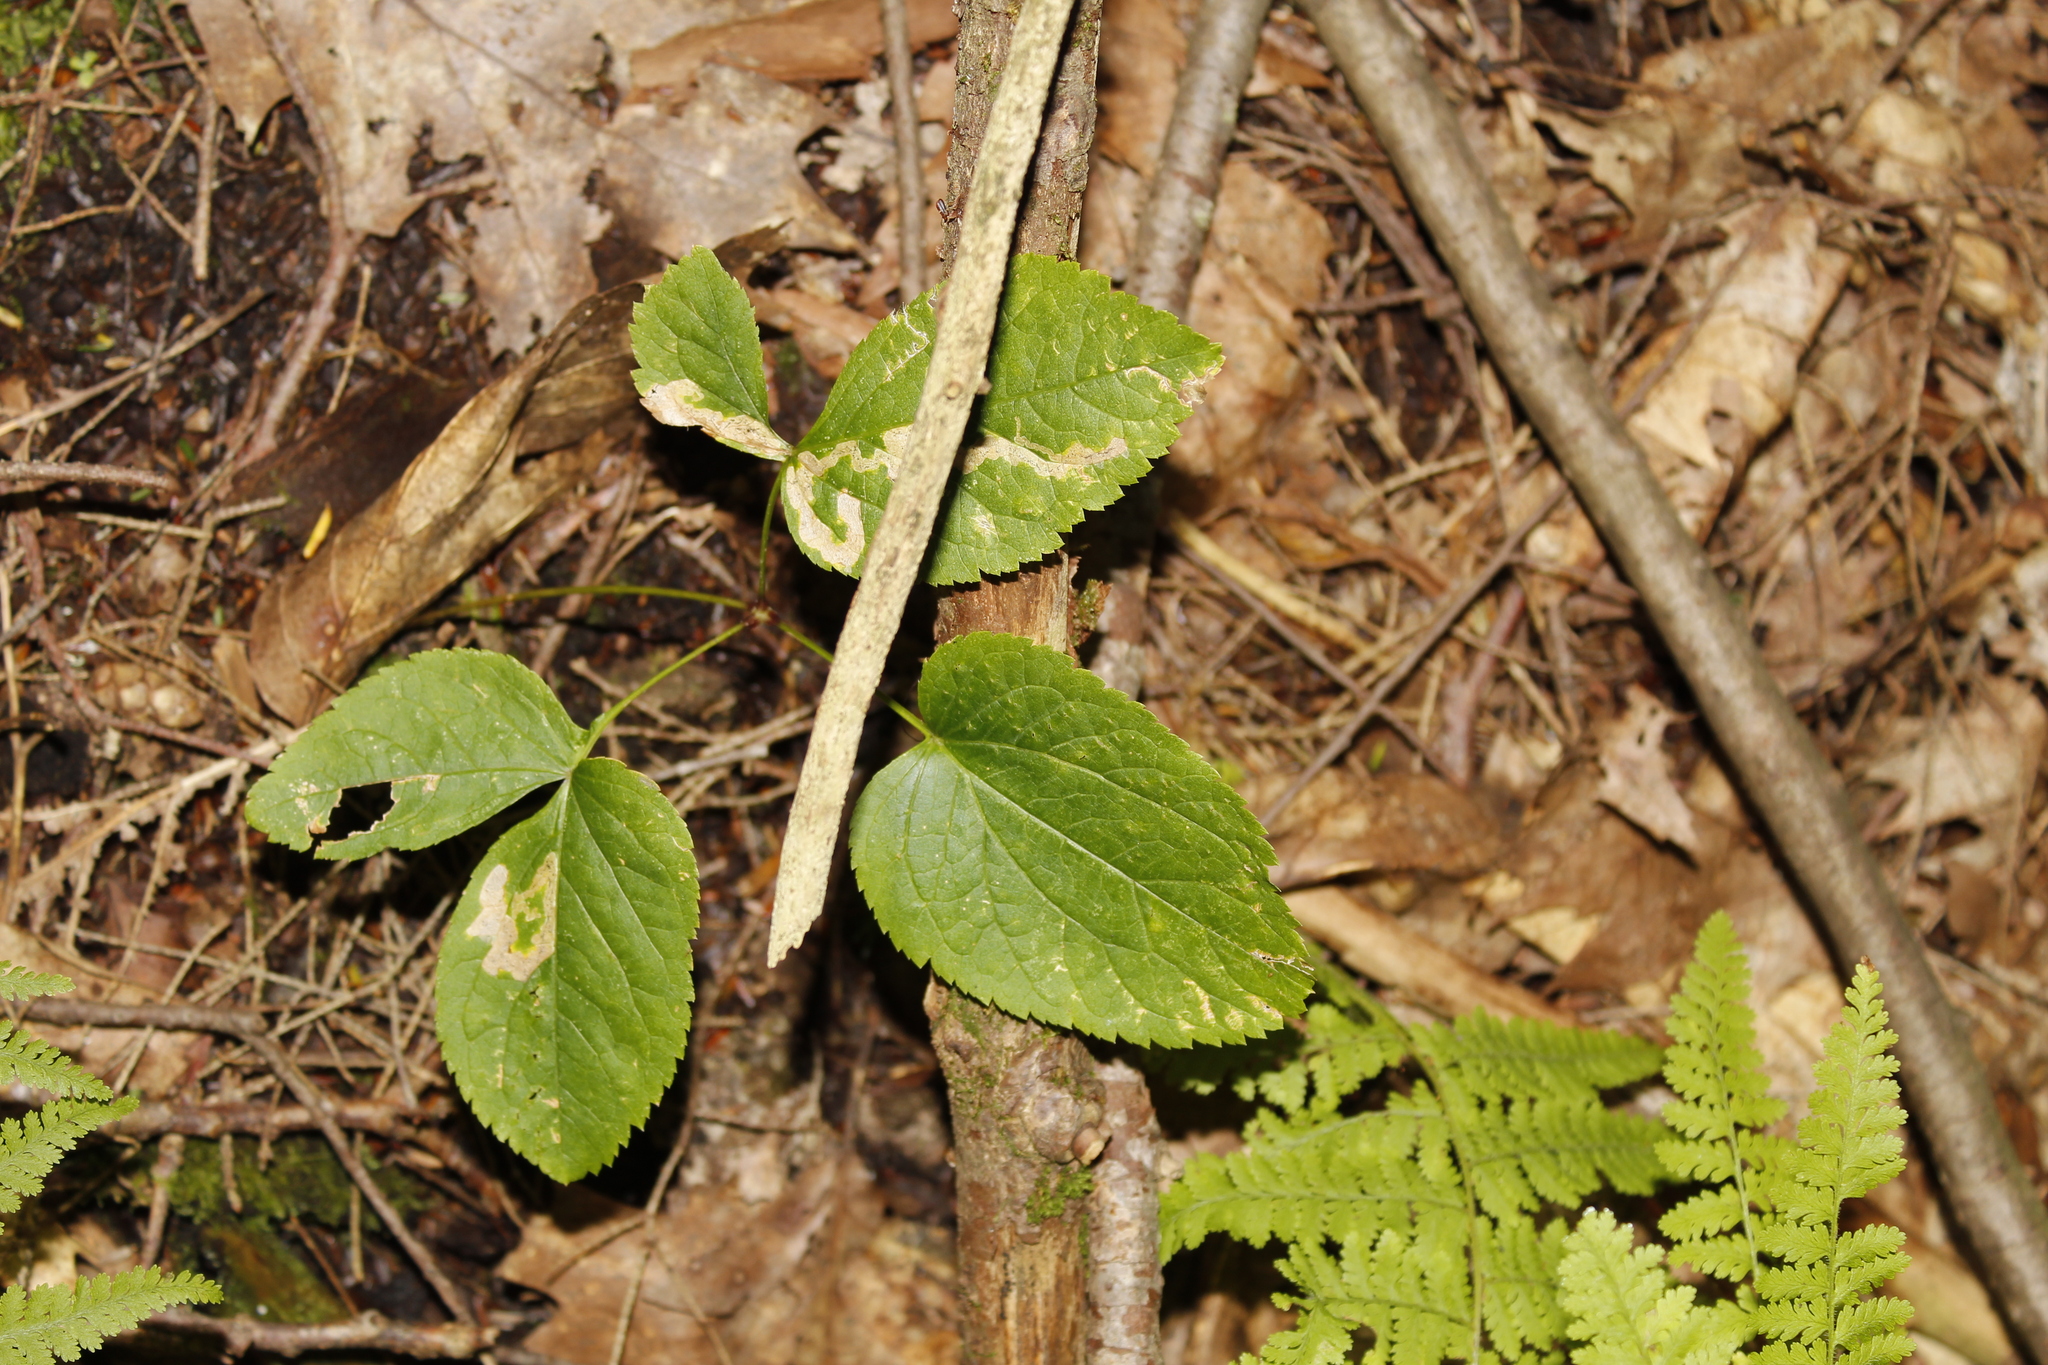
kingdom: Plantae
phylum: Tracheophyta
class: Magnoliopsida
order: Apiales
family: Araliaceae
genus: Aralia
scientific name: Aralia nudicaulis
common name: Wild sarsaparilla
